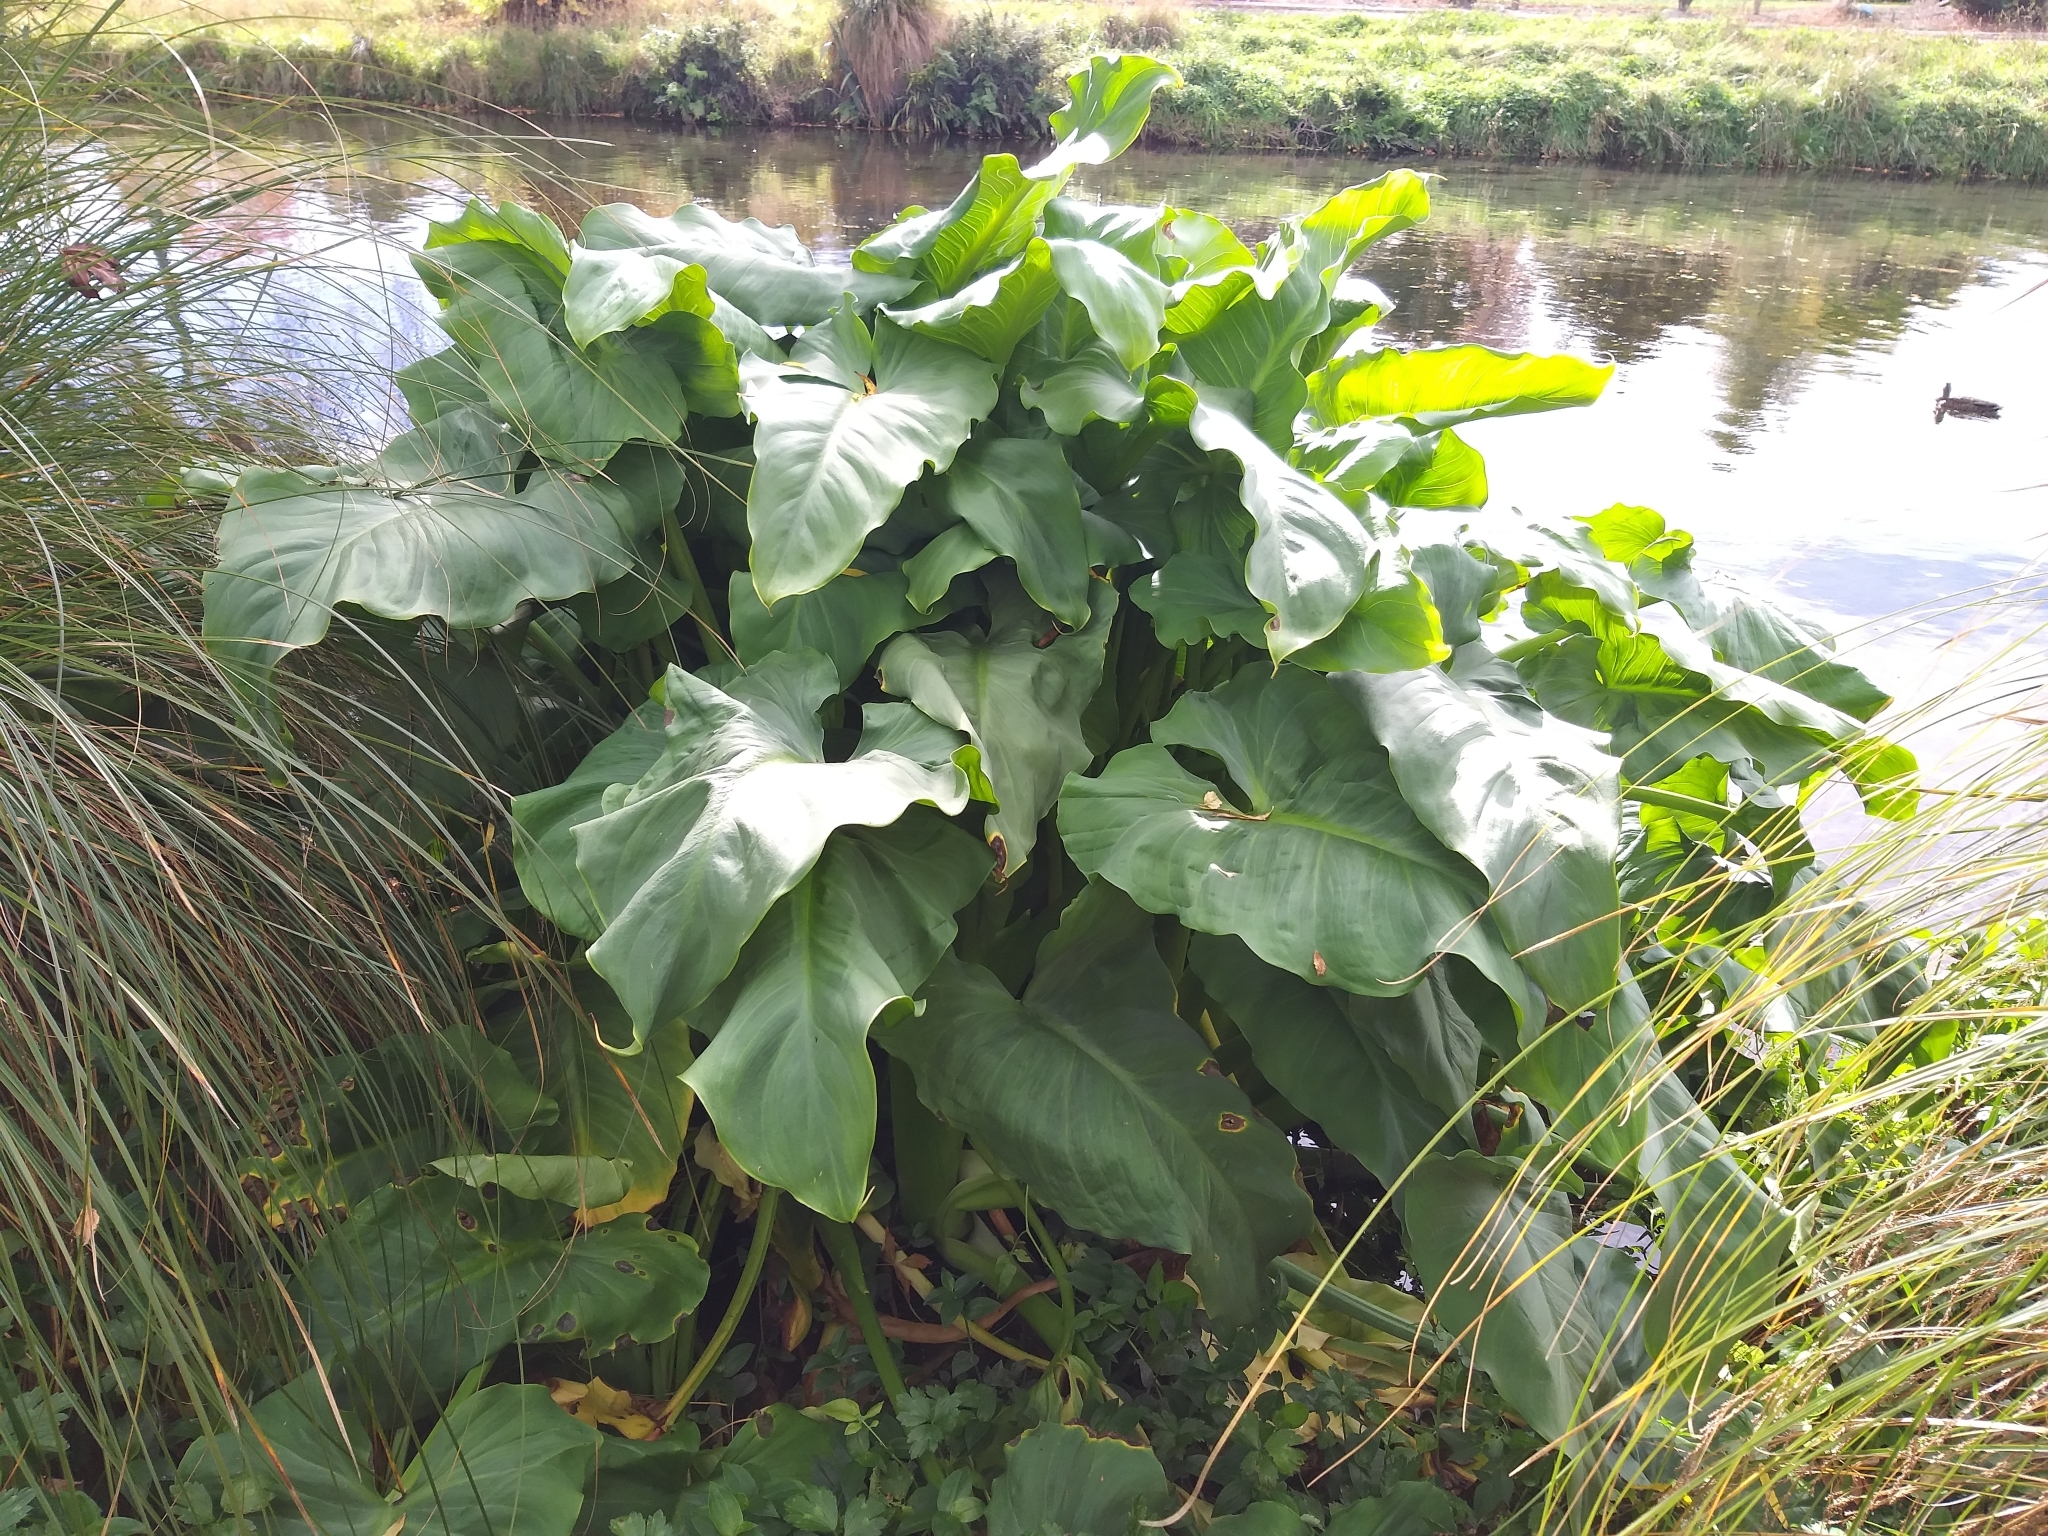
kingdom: Plantae
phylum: Tracheophyta
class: Liliopsida
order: Alismatales
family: Araceae
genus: Zantedeschia
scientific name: Zantedeschia aethiopica
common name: Altar-lily
